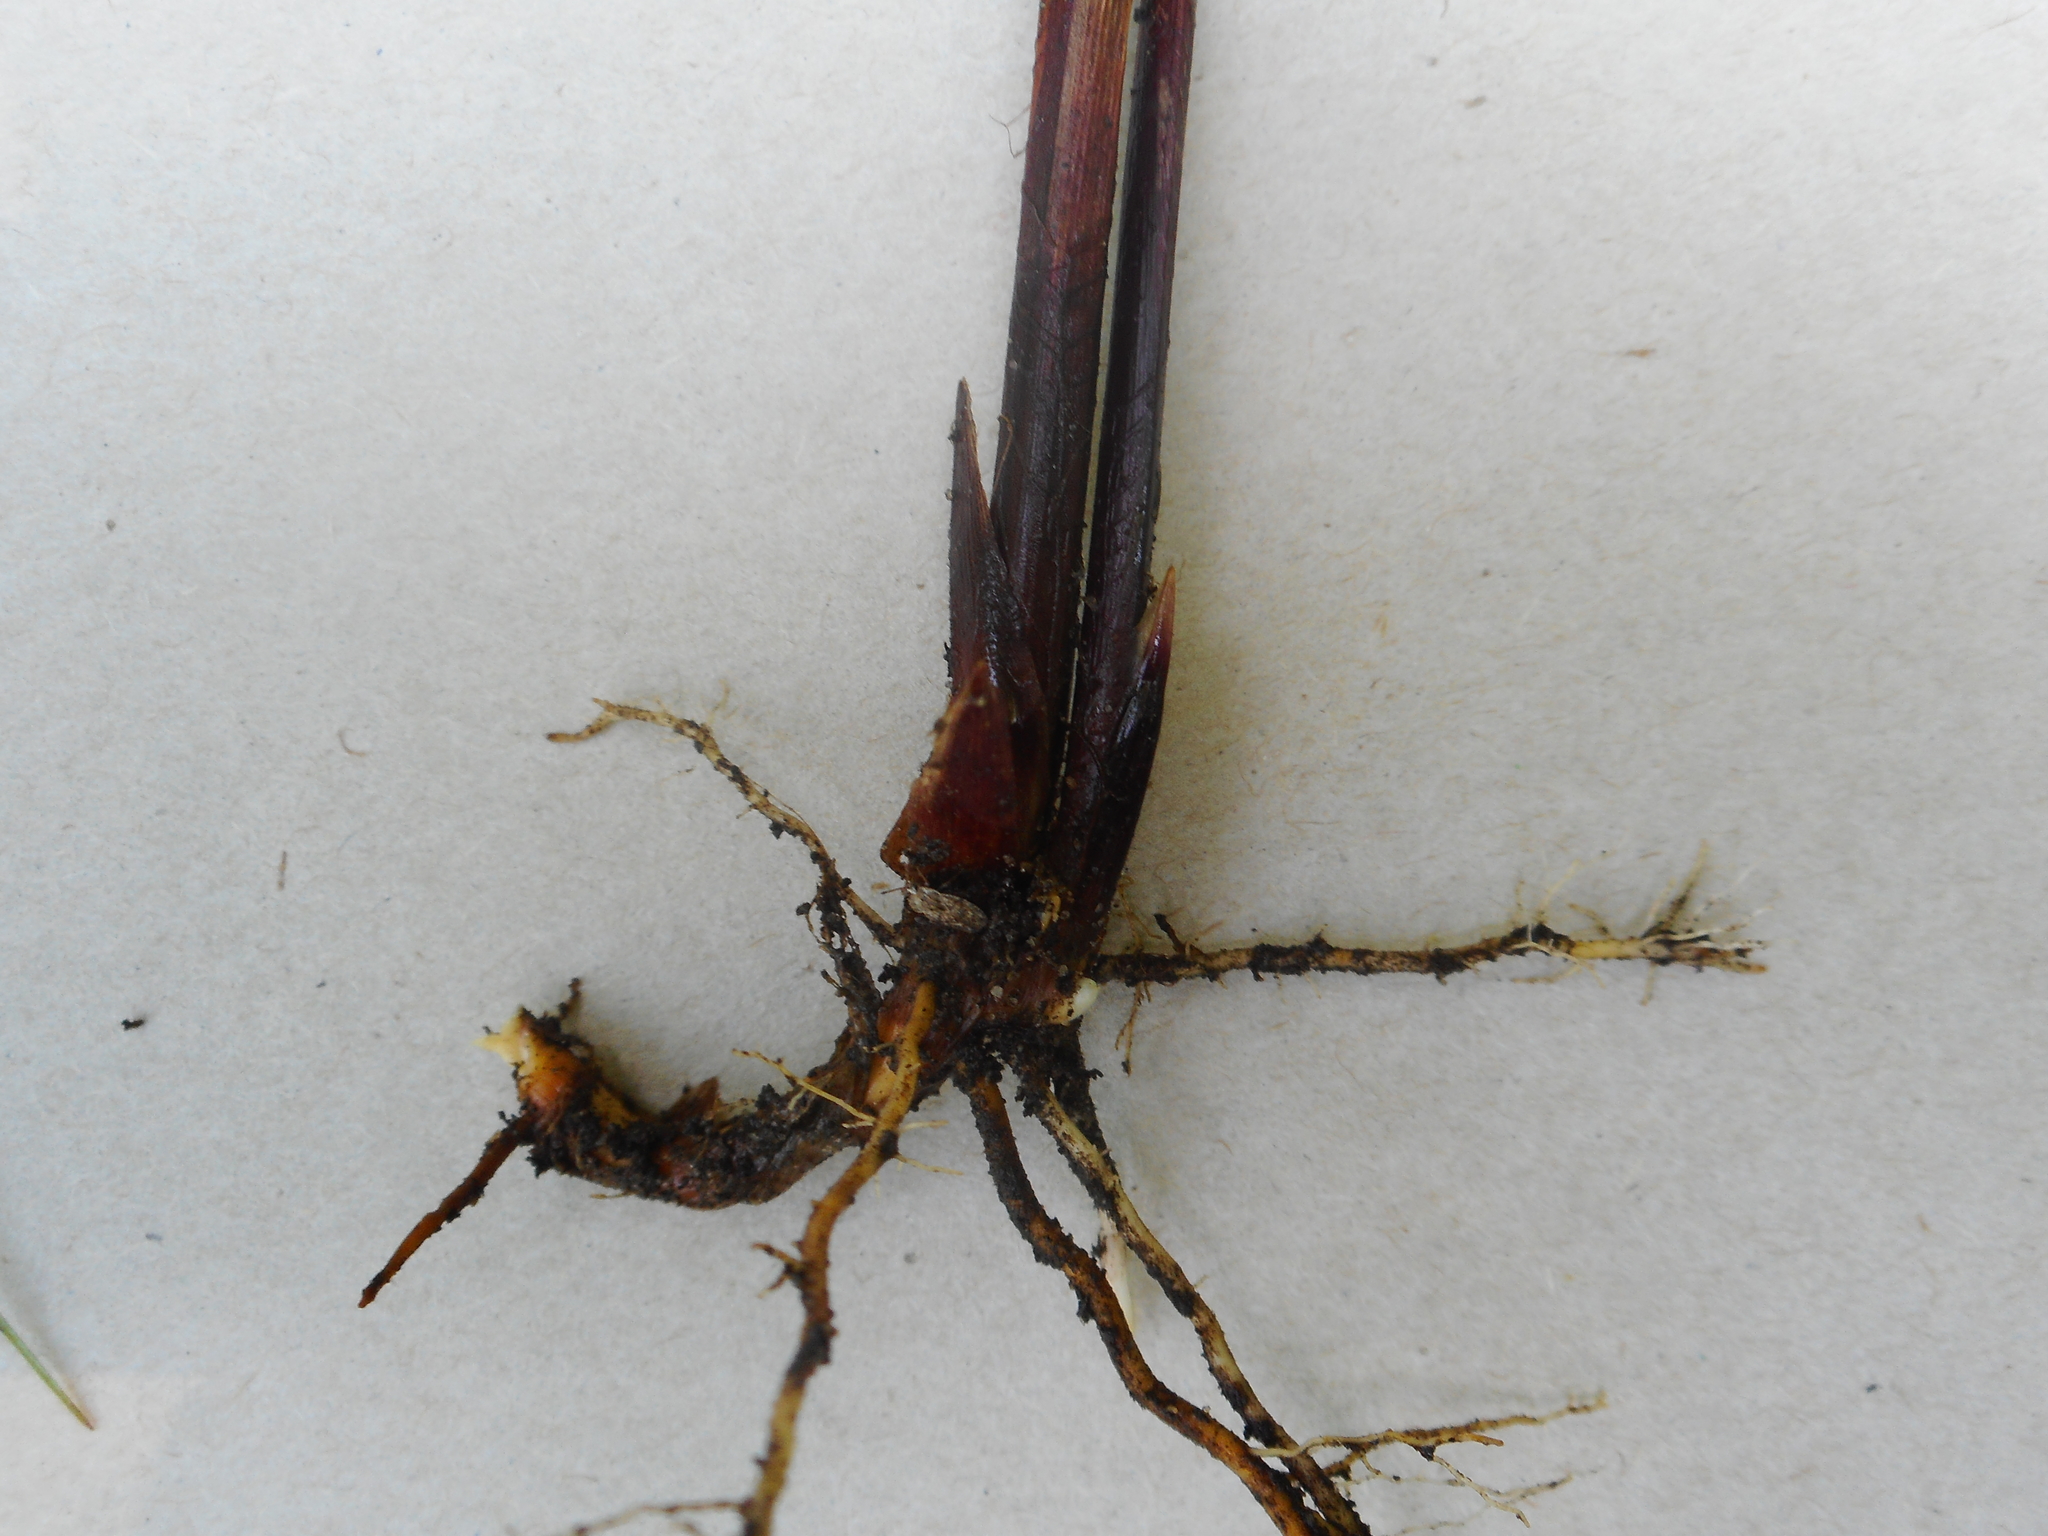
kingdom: Plantae
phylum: Tracheophyta
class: Liliopsida
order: Poales
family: Cyperaceae
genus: Carex
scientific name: Carex vesicaria
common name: Bladder-sedge
